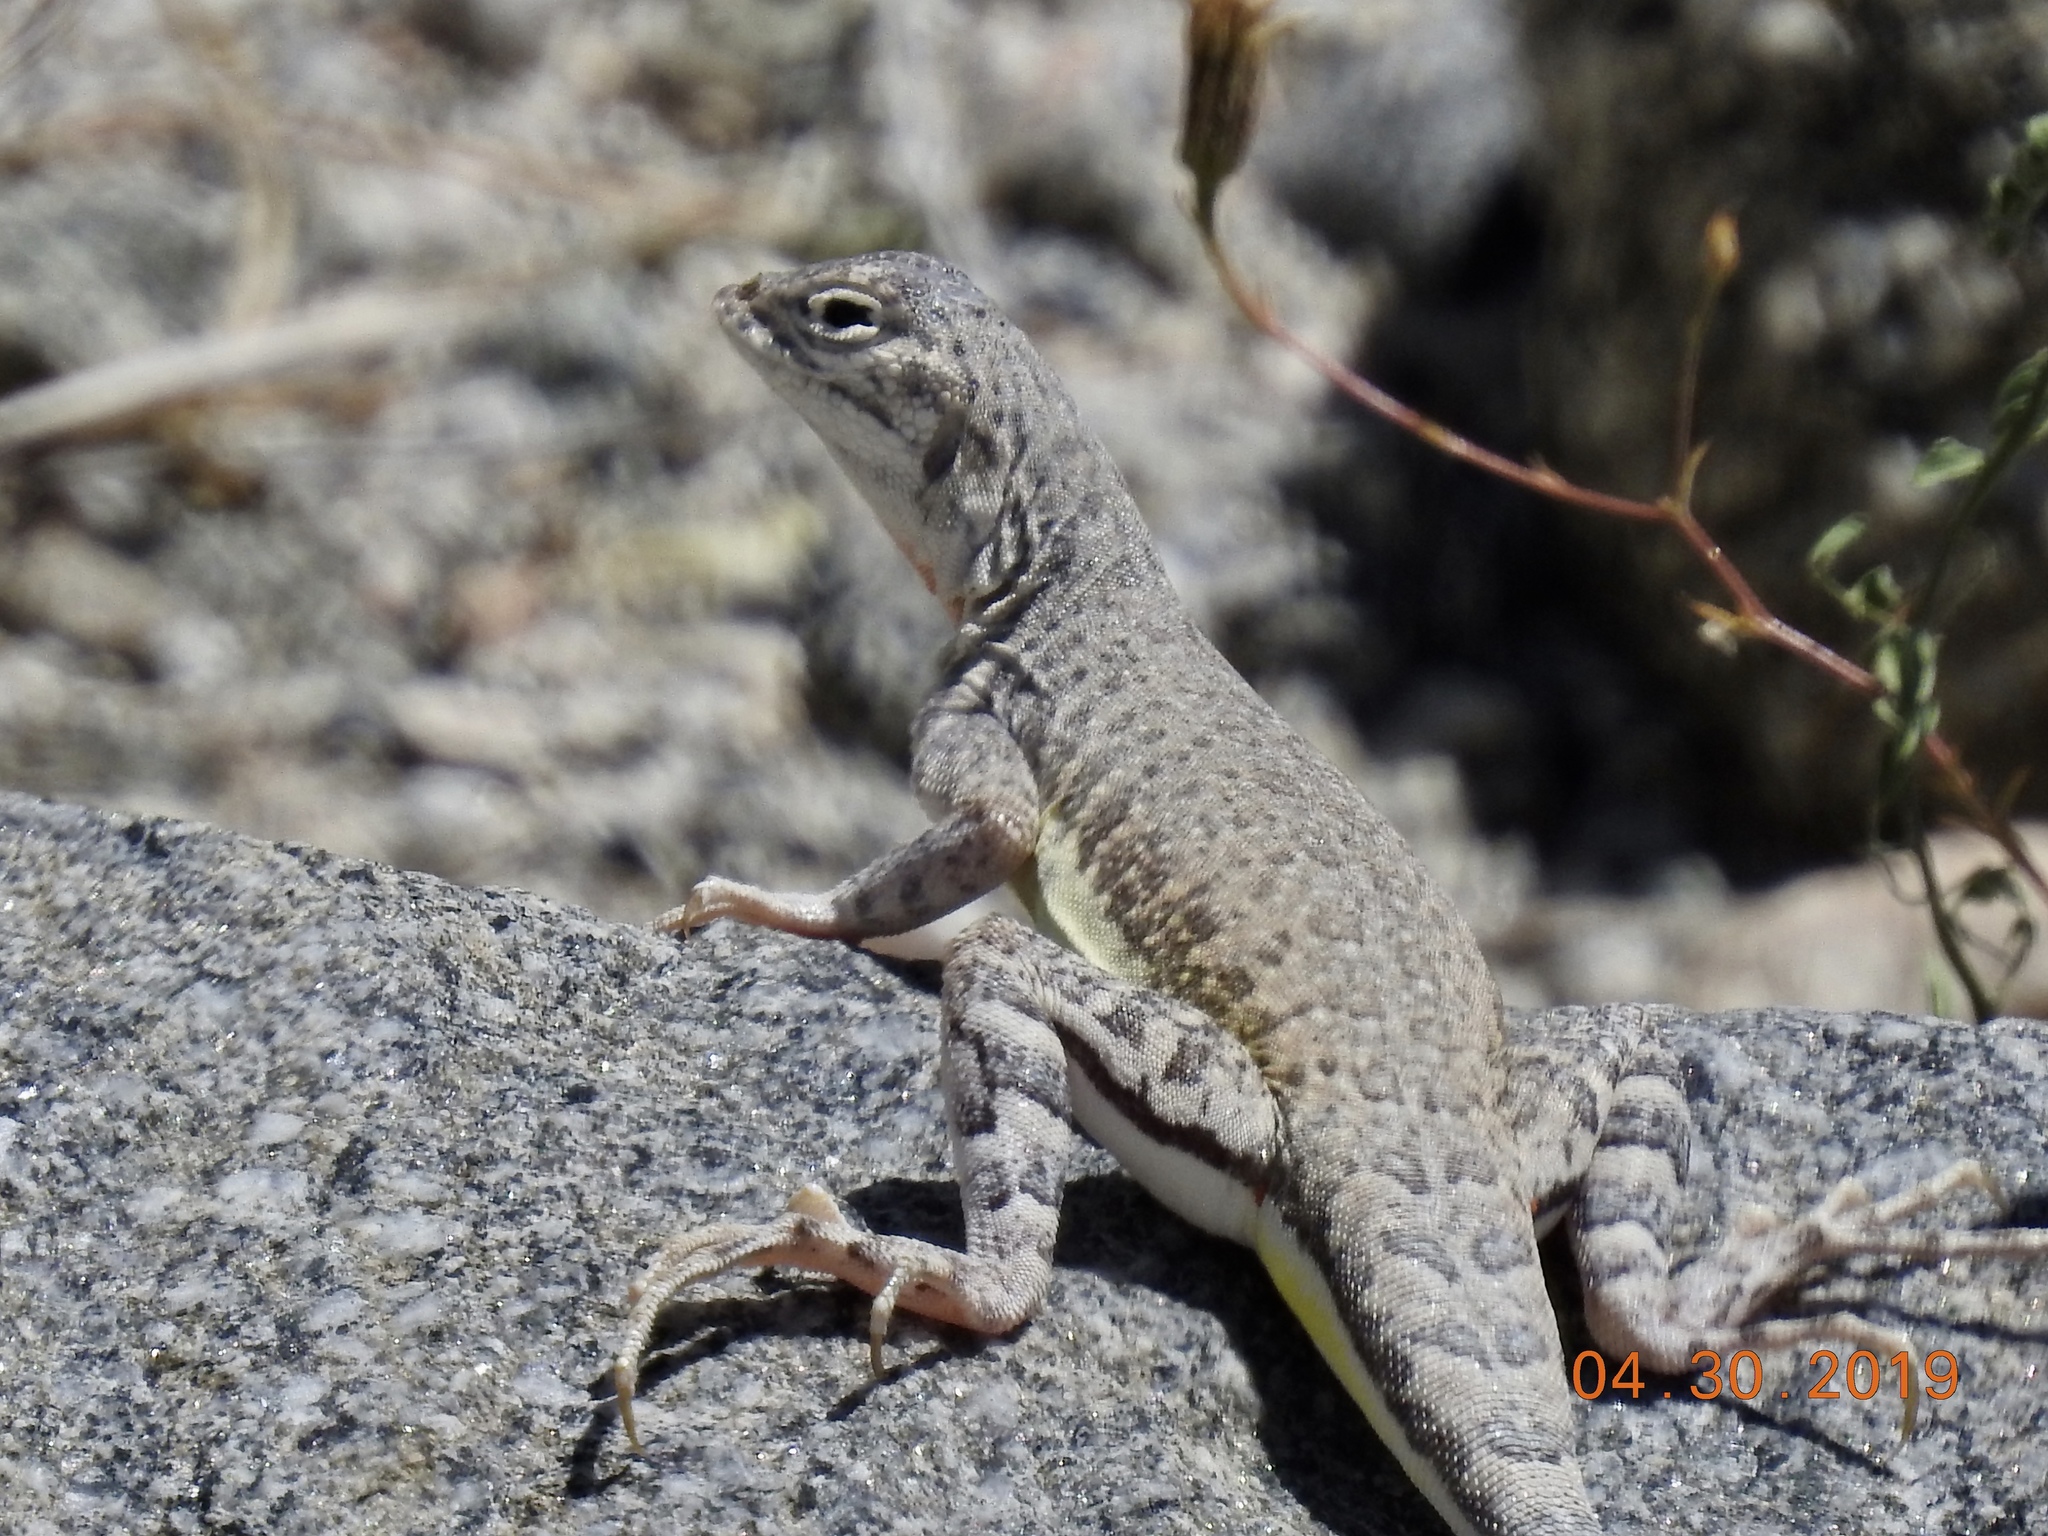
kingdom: Animalia
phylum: Chordata
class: Squamata
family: Phrynosomatidae
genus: Callisaurus
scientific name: Callisaurus draconoides
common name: Zebra-tailed lizard
